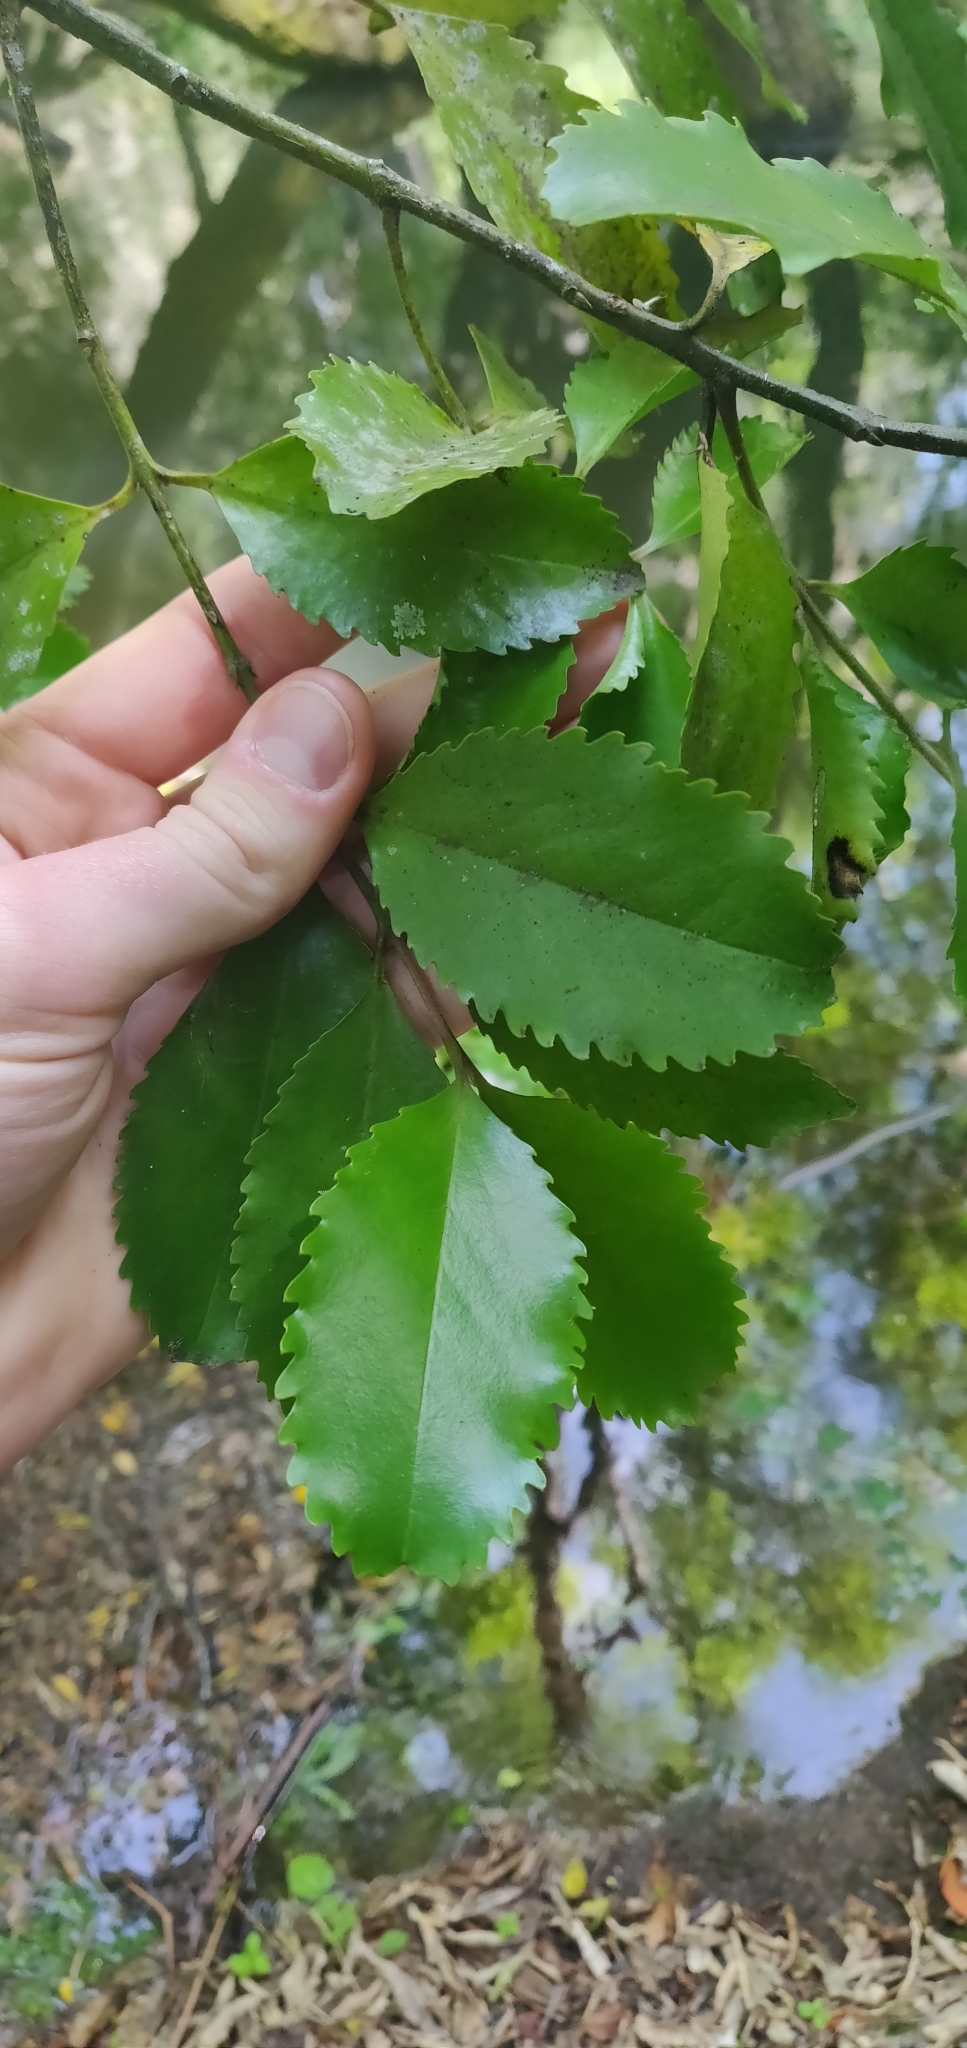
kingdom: Plantae
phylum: Tracheophyta
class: Magnoliopsida
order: Laurales
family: Atherospermataceae
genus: Laurelia
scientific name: Laurelia novae-zelandiae
